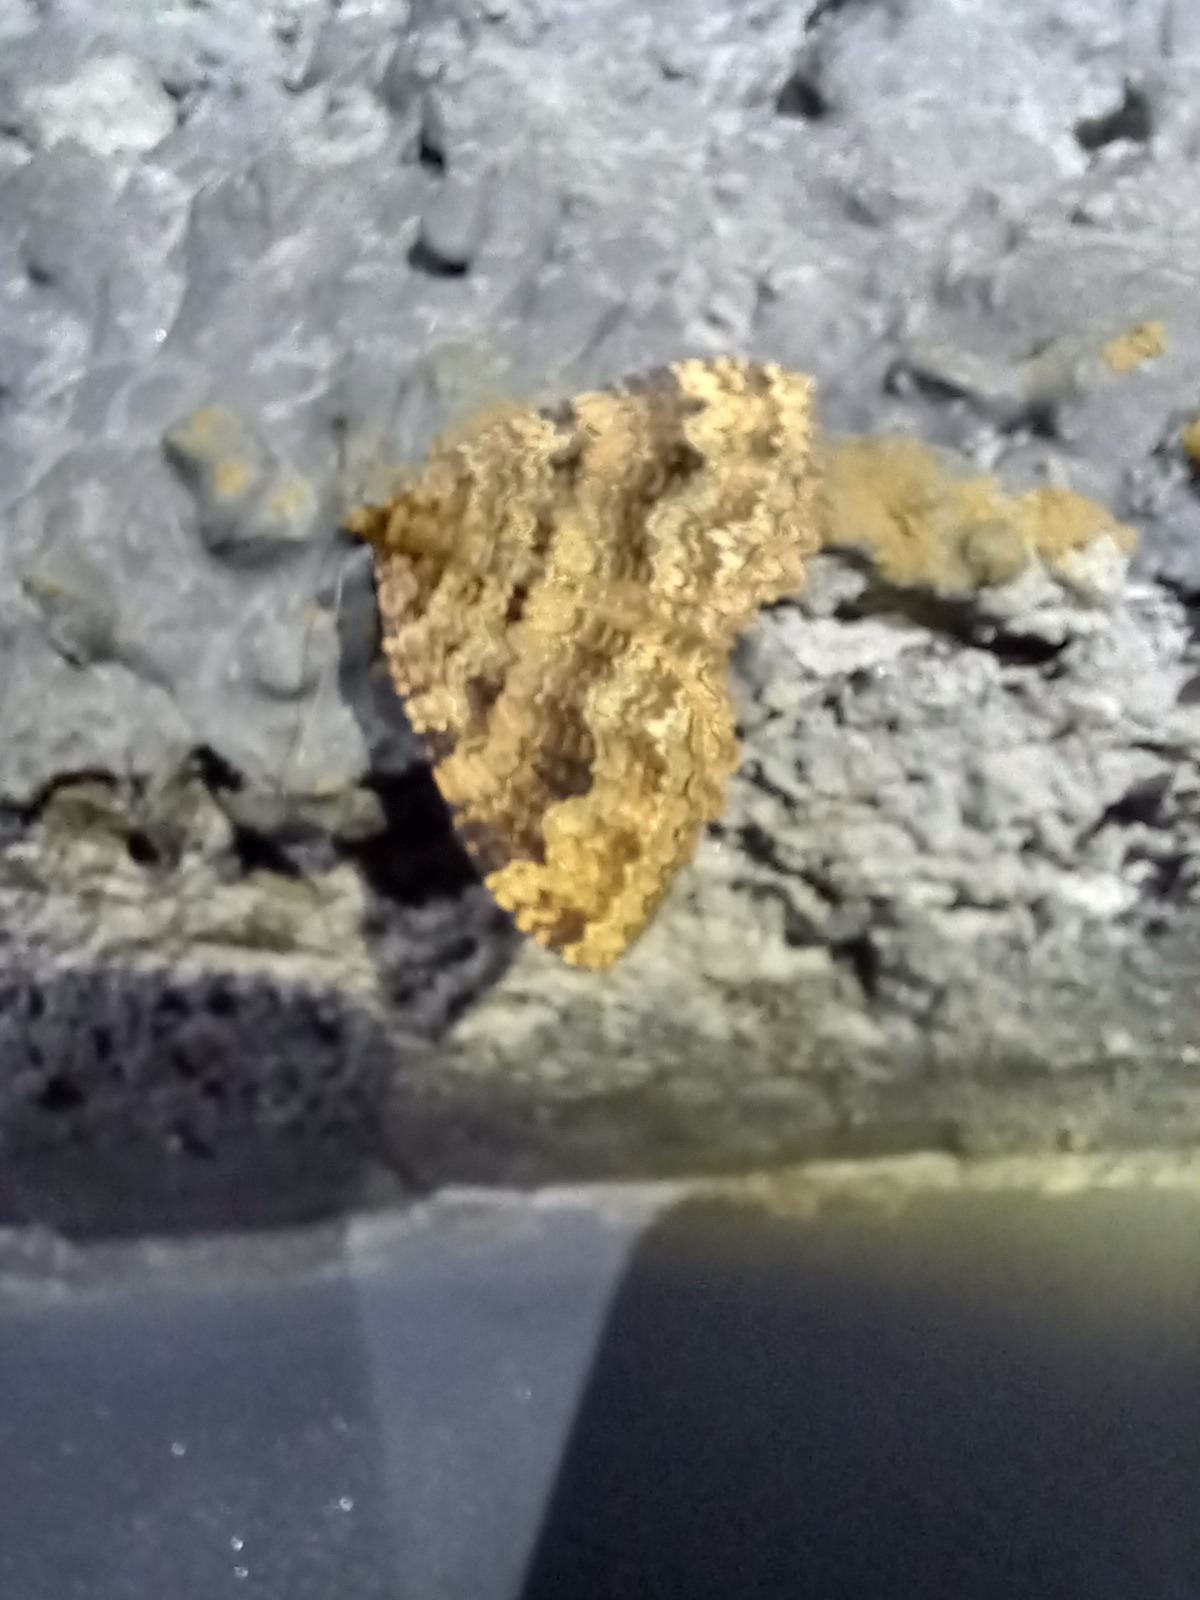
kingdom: Animalia
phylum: Arthropoda
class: Insecta
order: Lepidoptera
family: Geometridae
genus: Triphosa
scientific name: Triphosa dubitata
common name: Tissue
